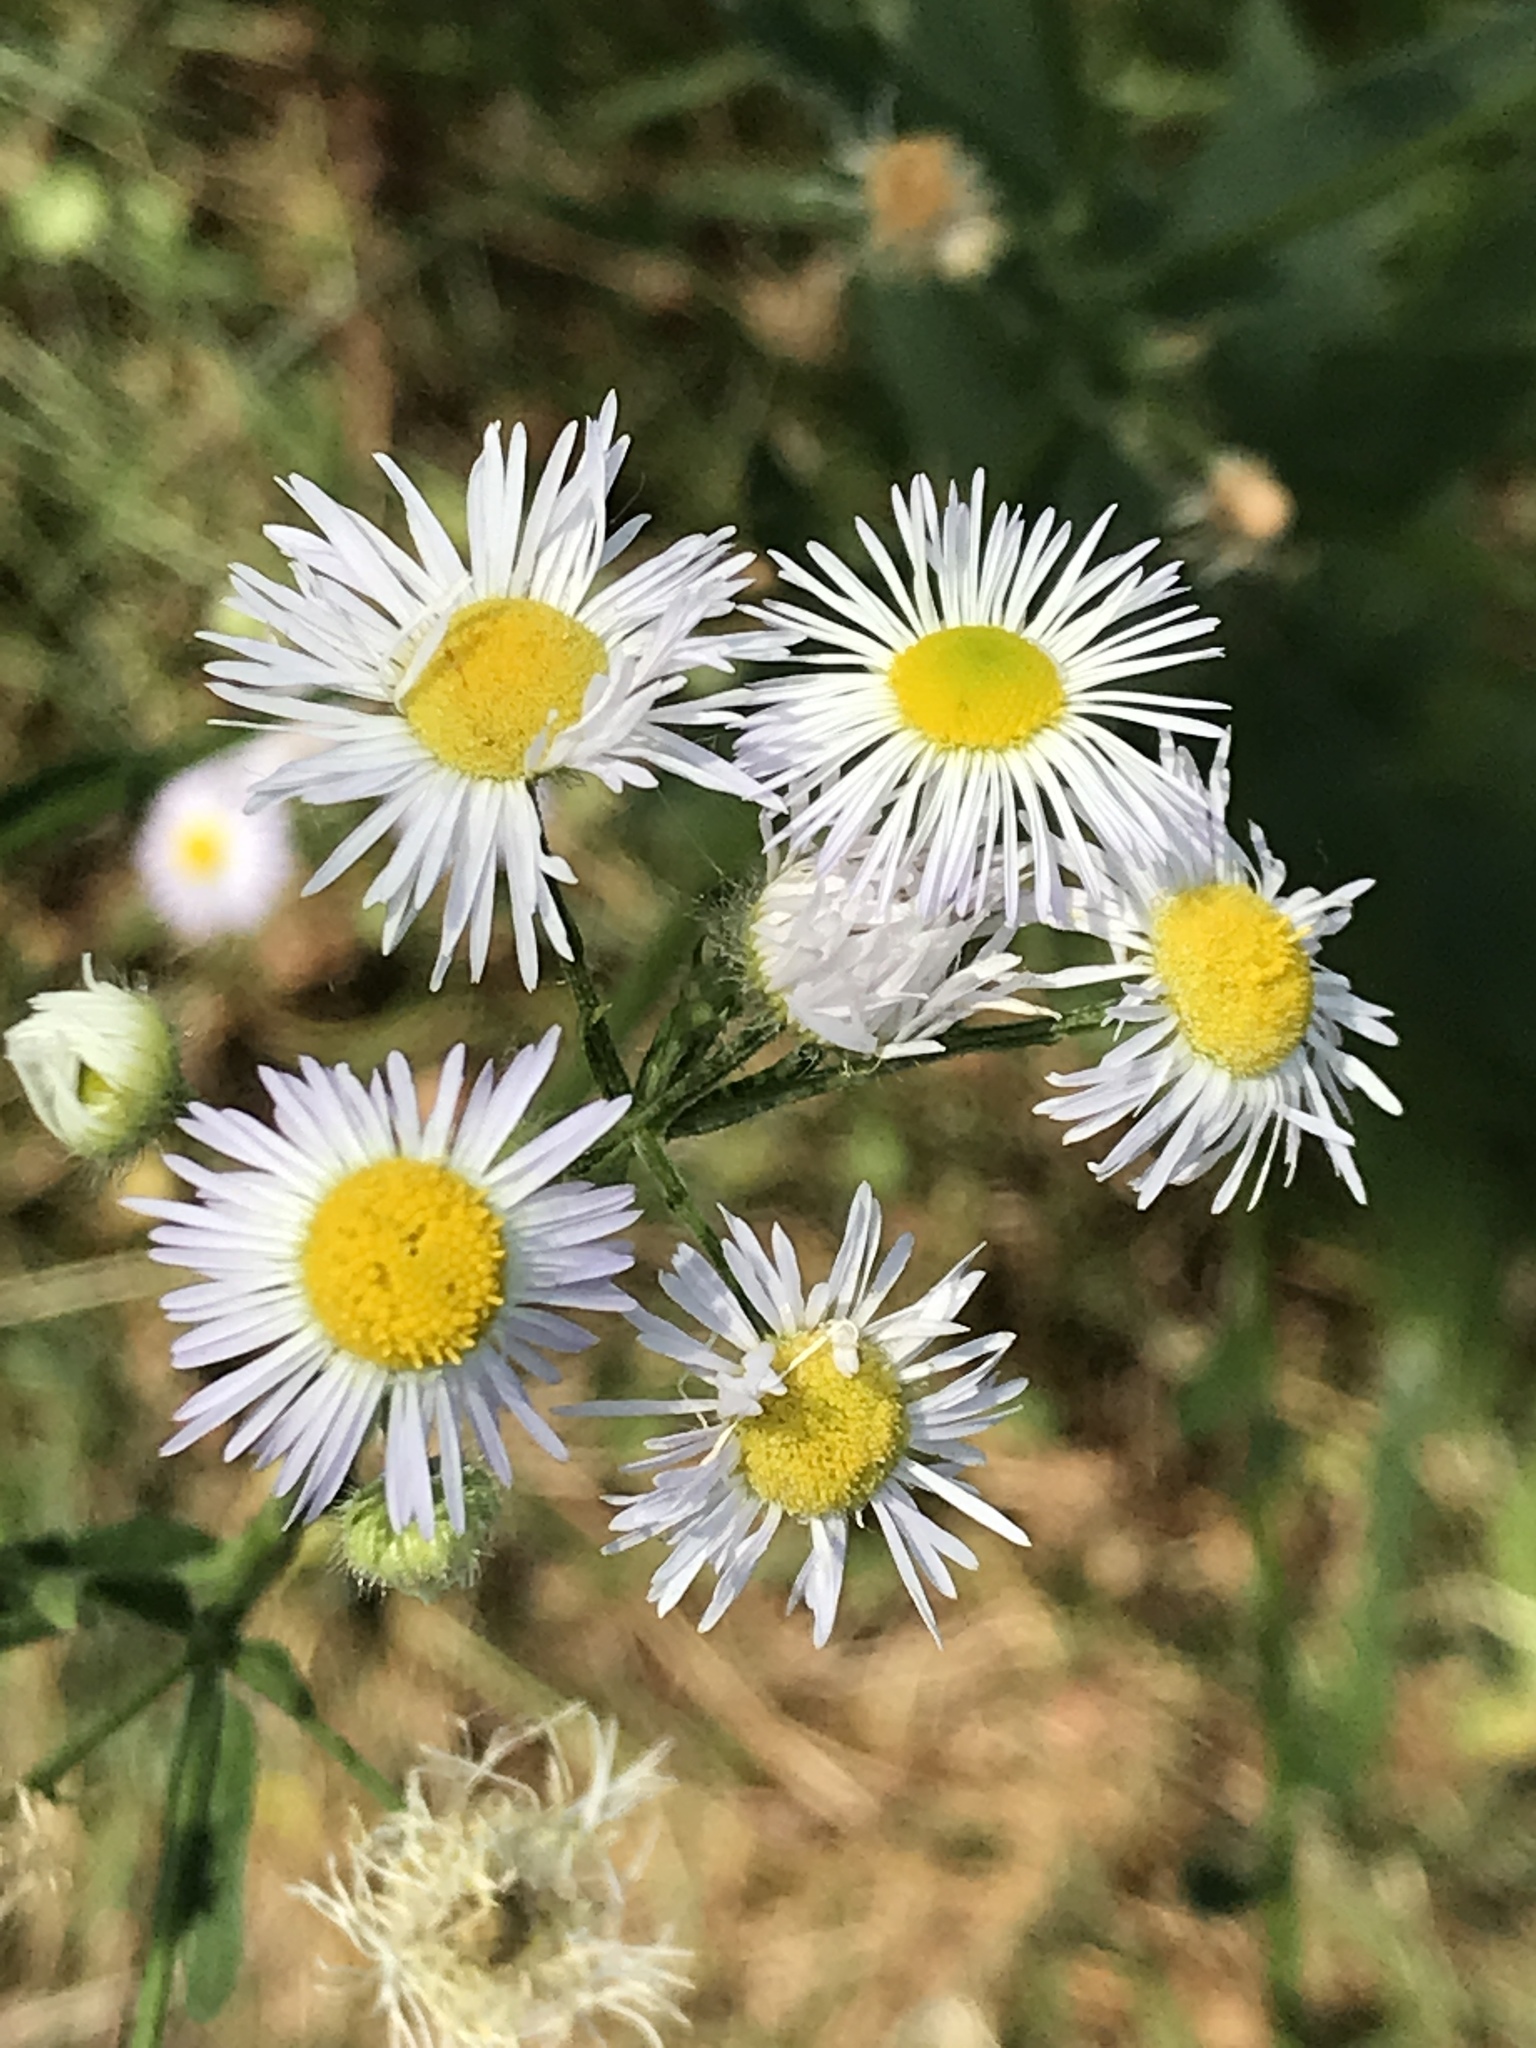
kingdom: Plantae
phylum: Tracheophyta
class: Magnoliopsida
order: Asterales
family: Asteraceae
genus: Erigeron
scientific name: Erigeron strigosus
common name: Common eastern fleabane
